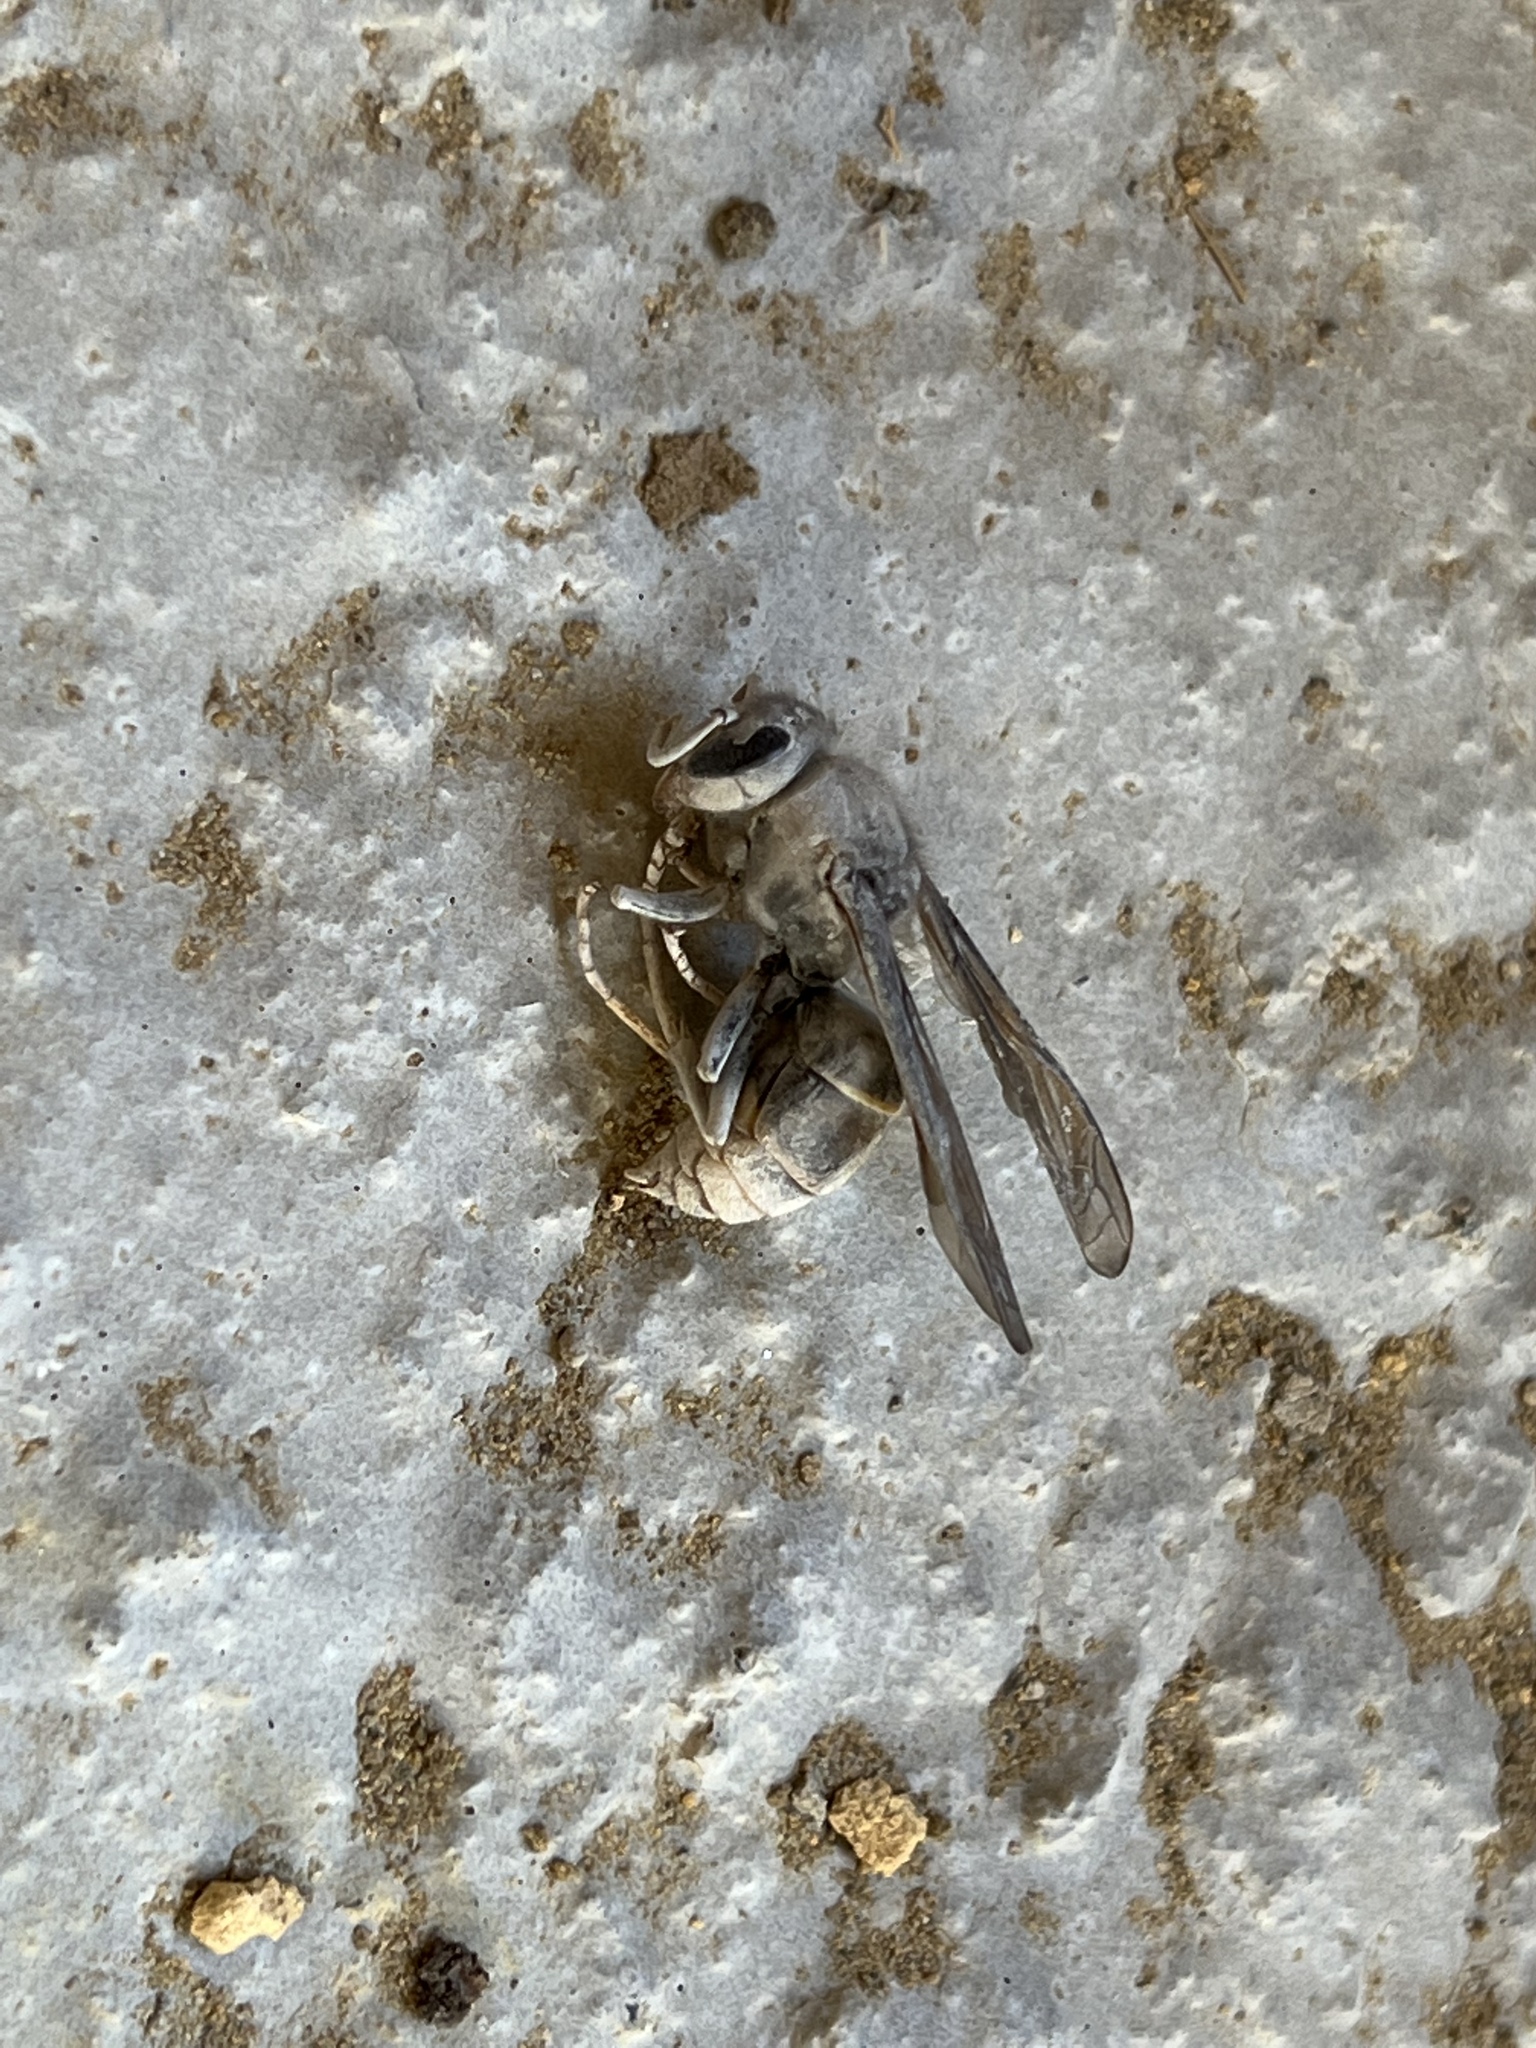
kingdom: Animalia
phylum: Arthropoda
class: Insecta
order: Hymenoptera
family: Vespidae
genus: Vespa
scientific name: Vespa velutina
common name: Asian hornet
